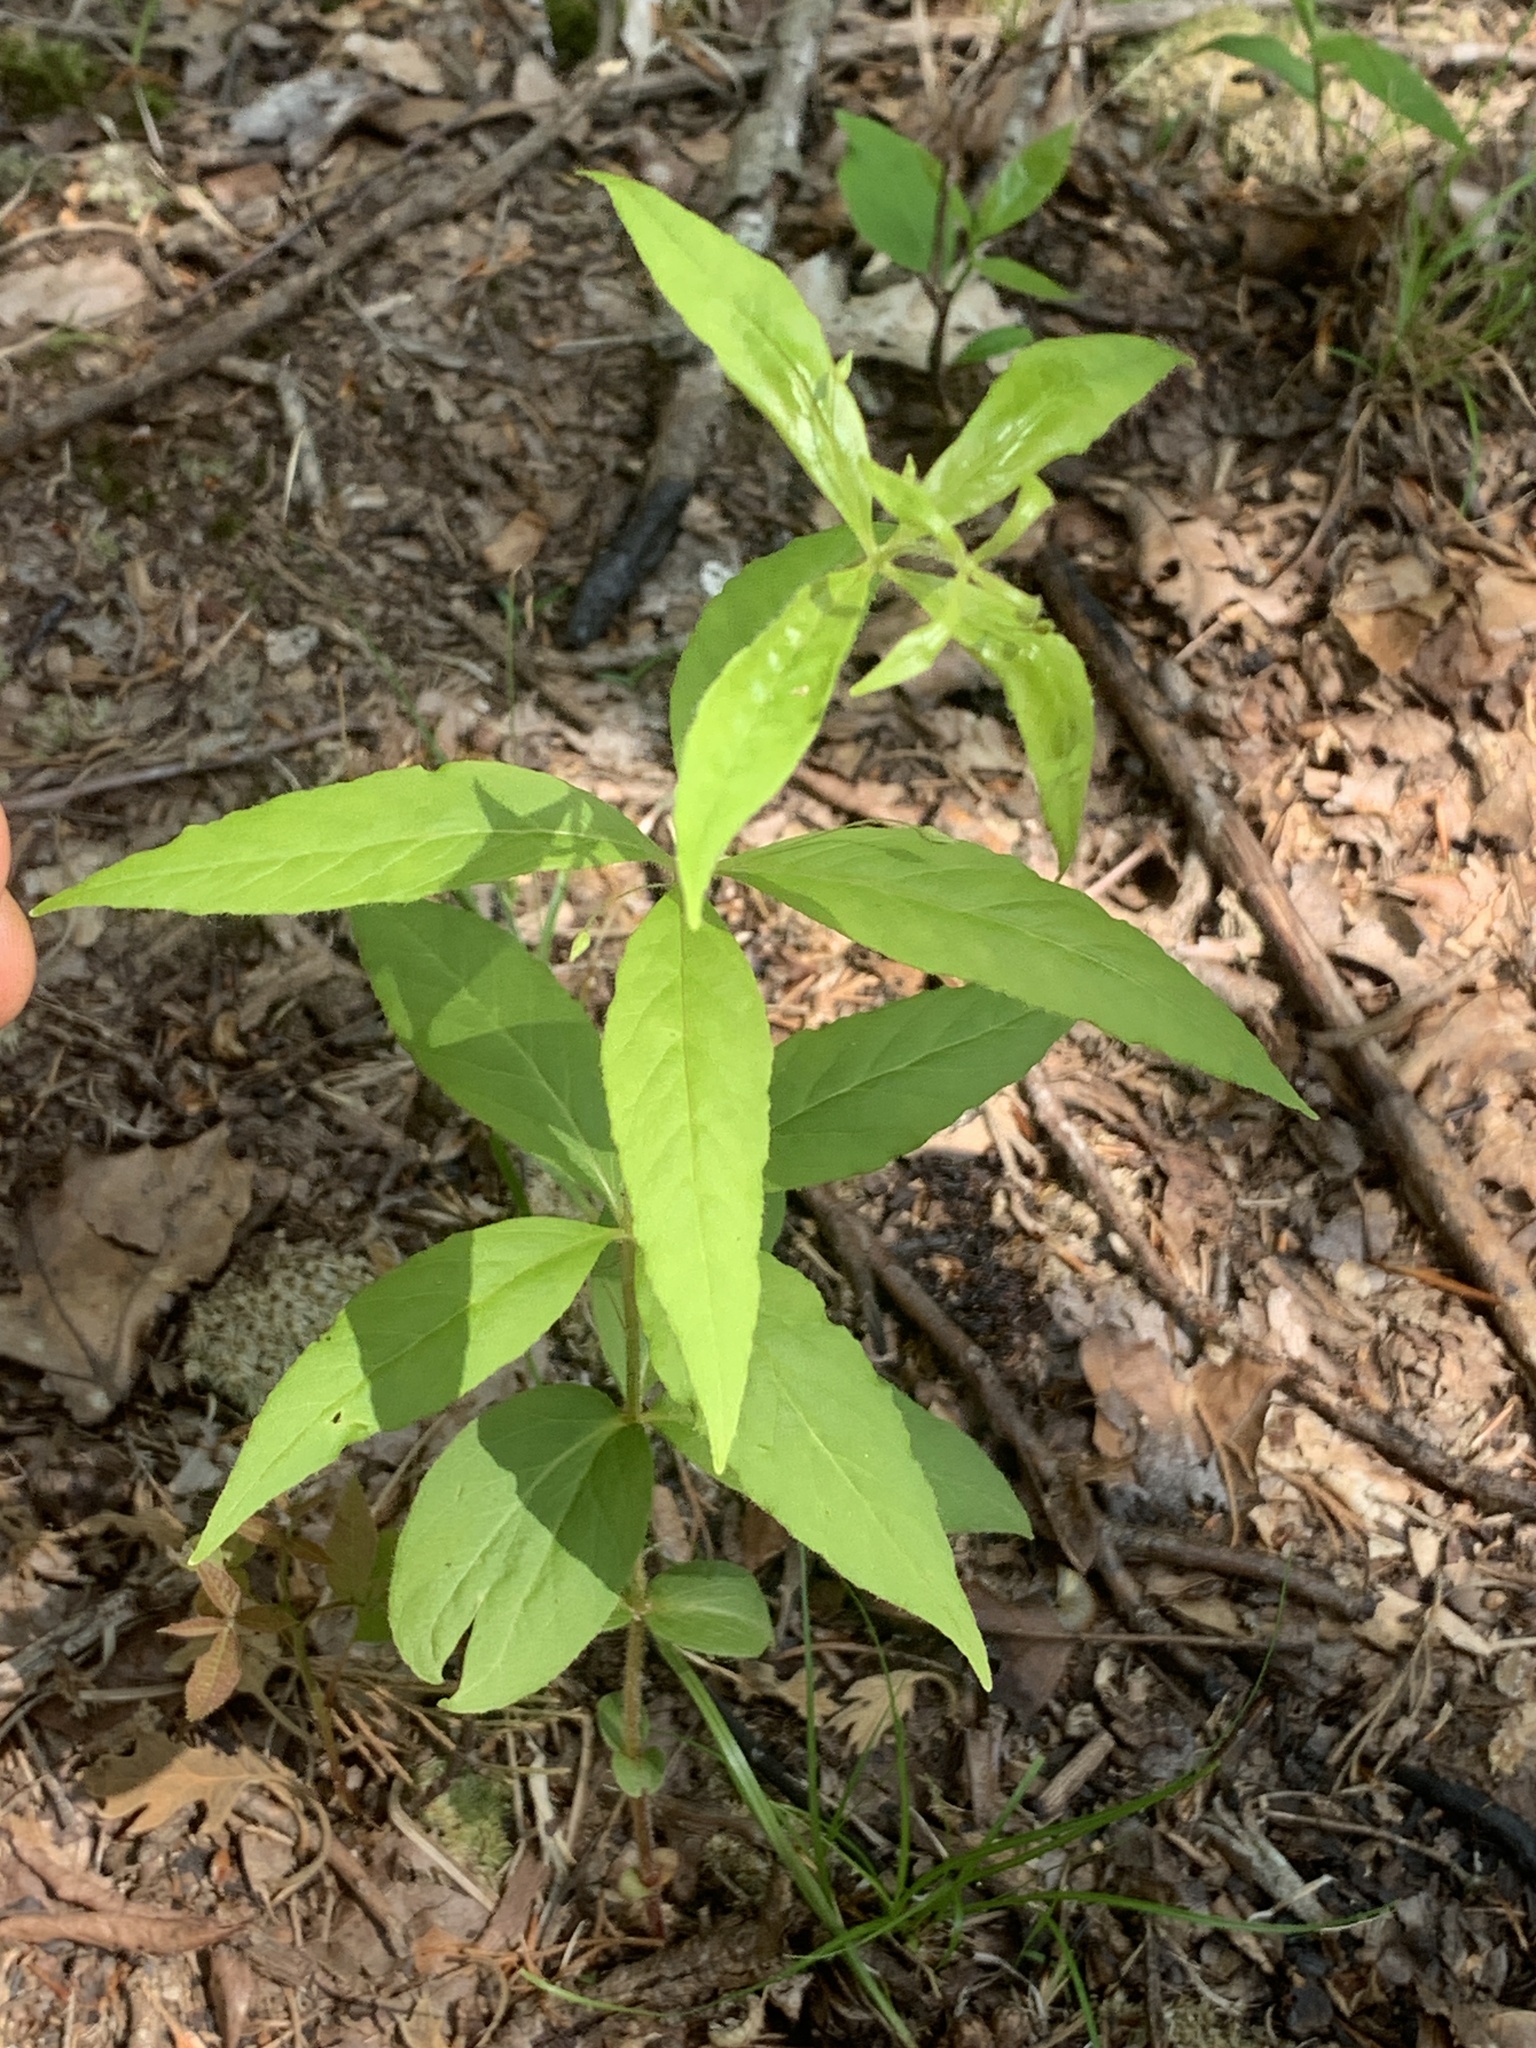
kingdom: Plantae
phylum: Tracheophyta
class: Magnoliopsida
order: Ericales
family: Primulaceae
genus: Lysimachia
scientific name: Lysimachia quadrifolia
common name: Whorled loosestrife
